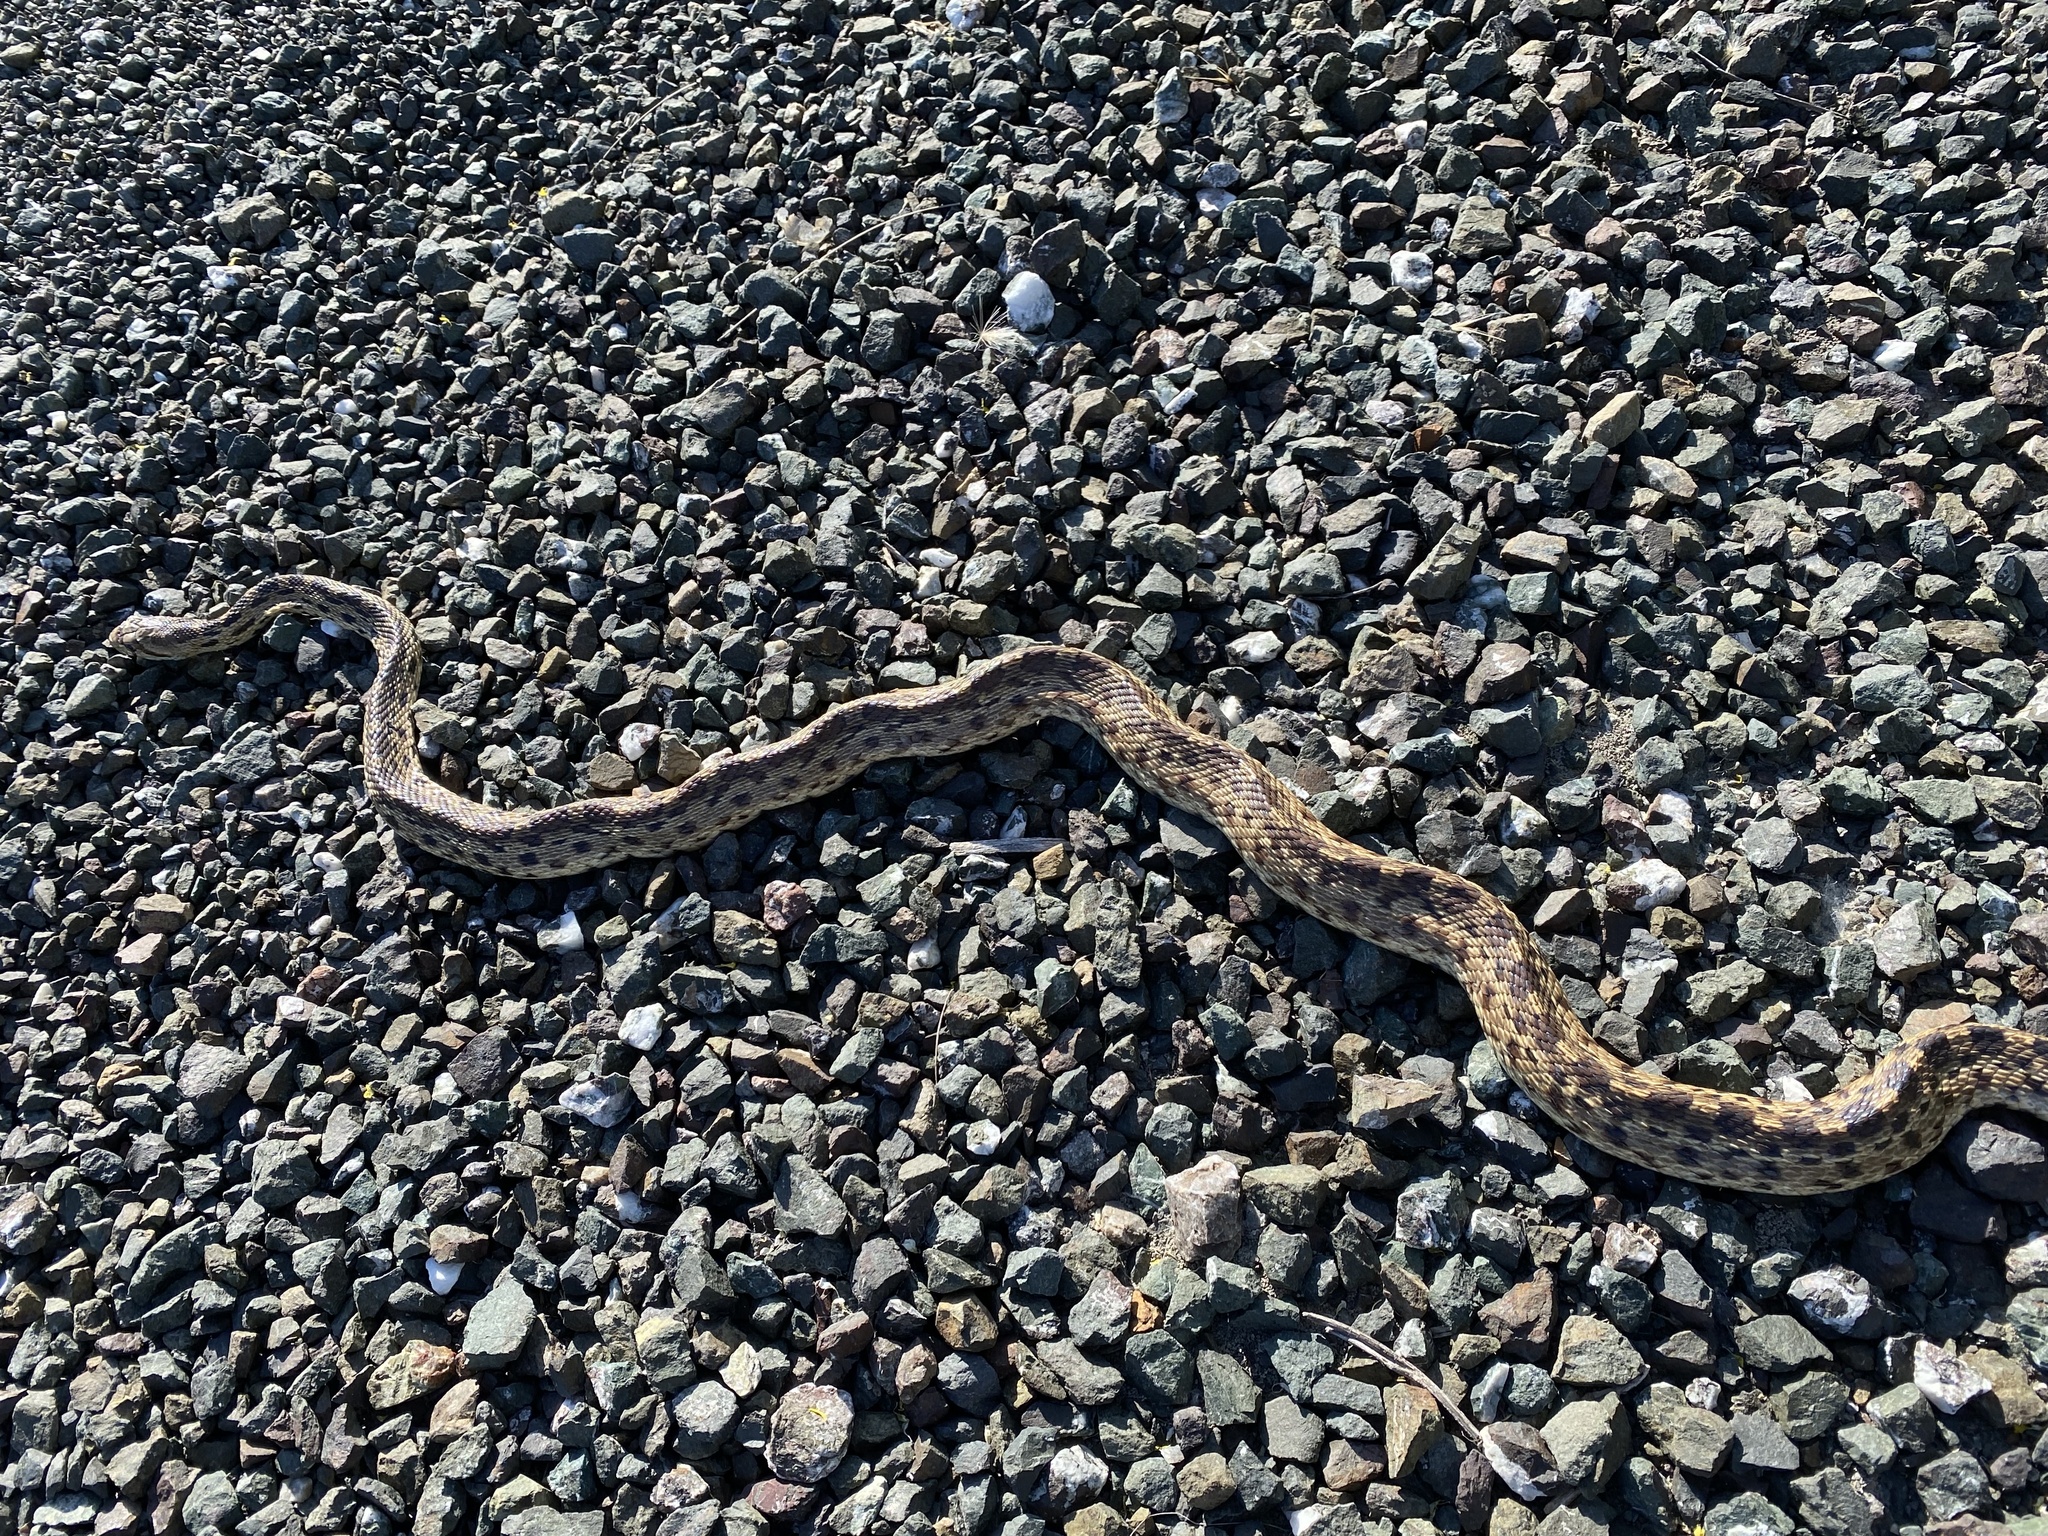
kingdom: Animalia
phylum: Chordata
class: Squamata
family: Colubridae
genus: Pituophis
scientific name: Pituophis catenifer
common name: Gopher snake
